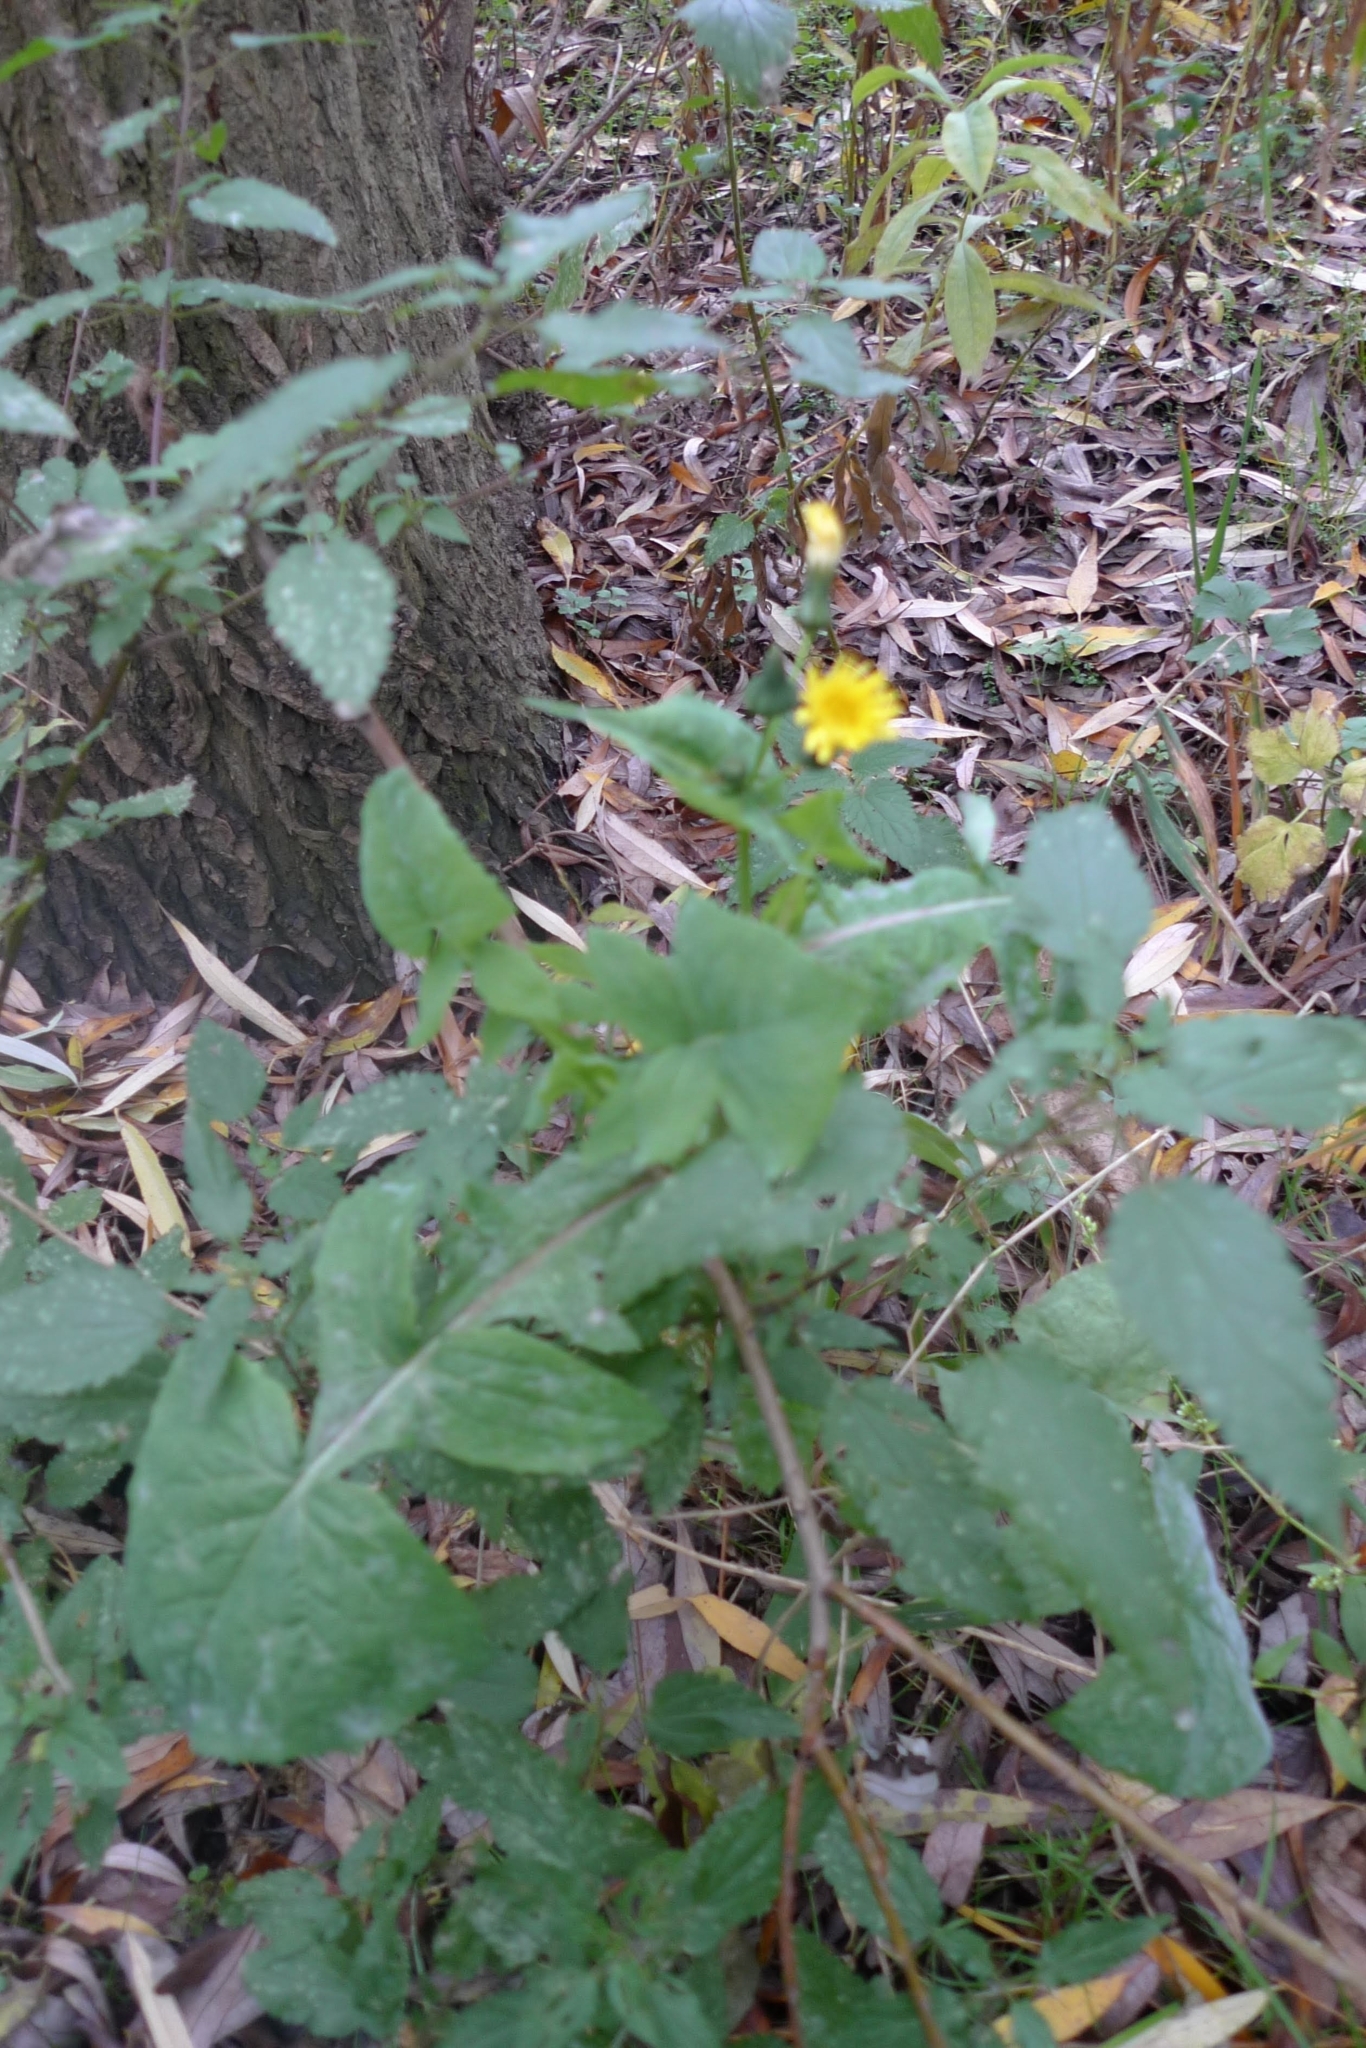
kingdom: Plantae
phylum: Tracheophyta
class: Magnoliopsida
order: Asterales
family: Asteraceae
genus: Sonchus
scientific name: Sonchus oleraceus
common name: Common sowthistle
